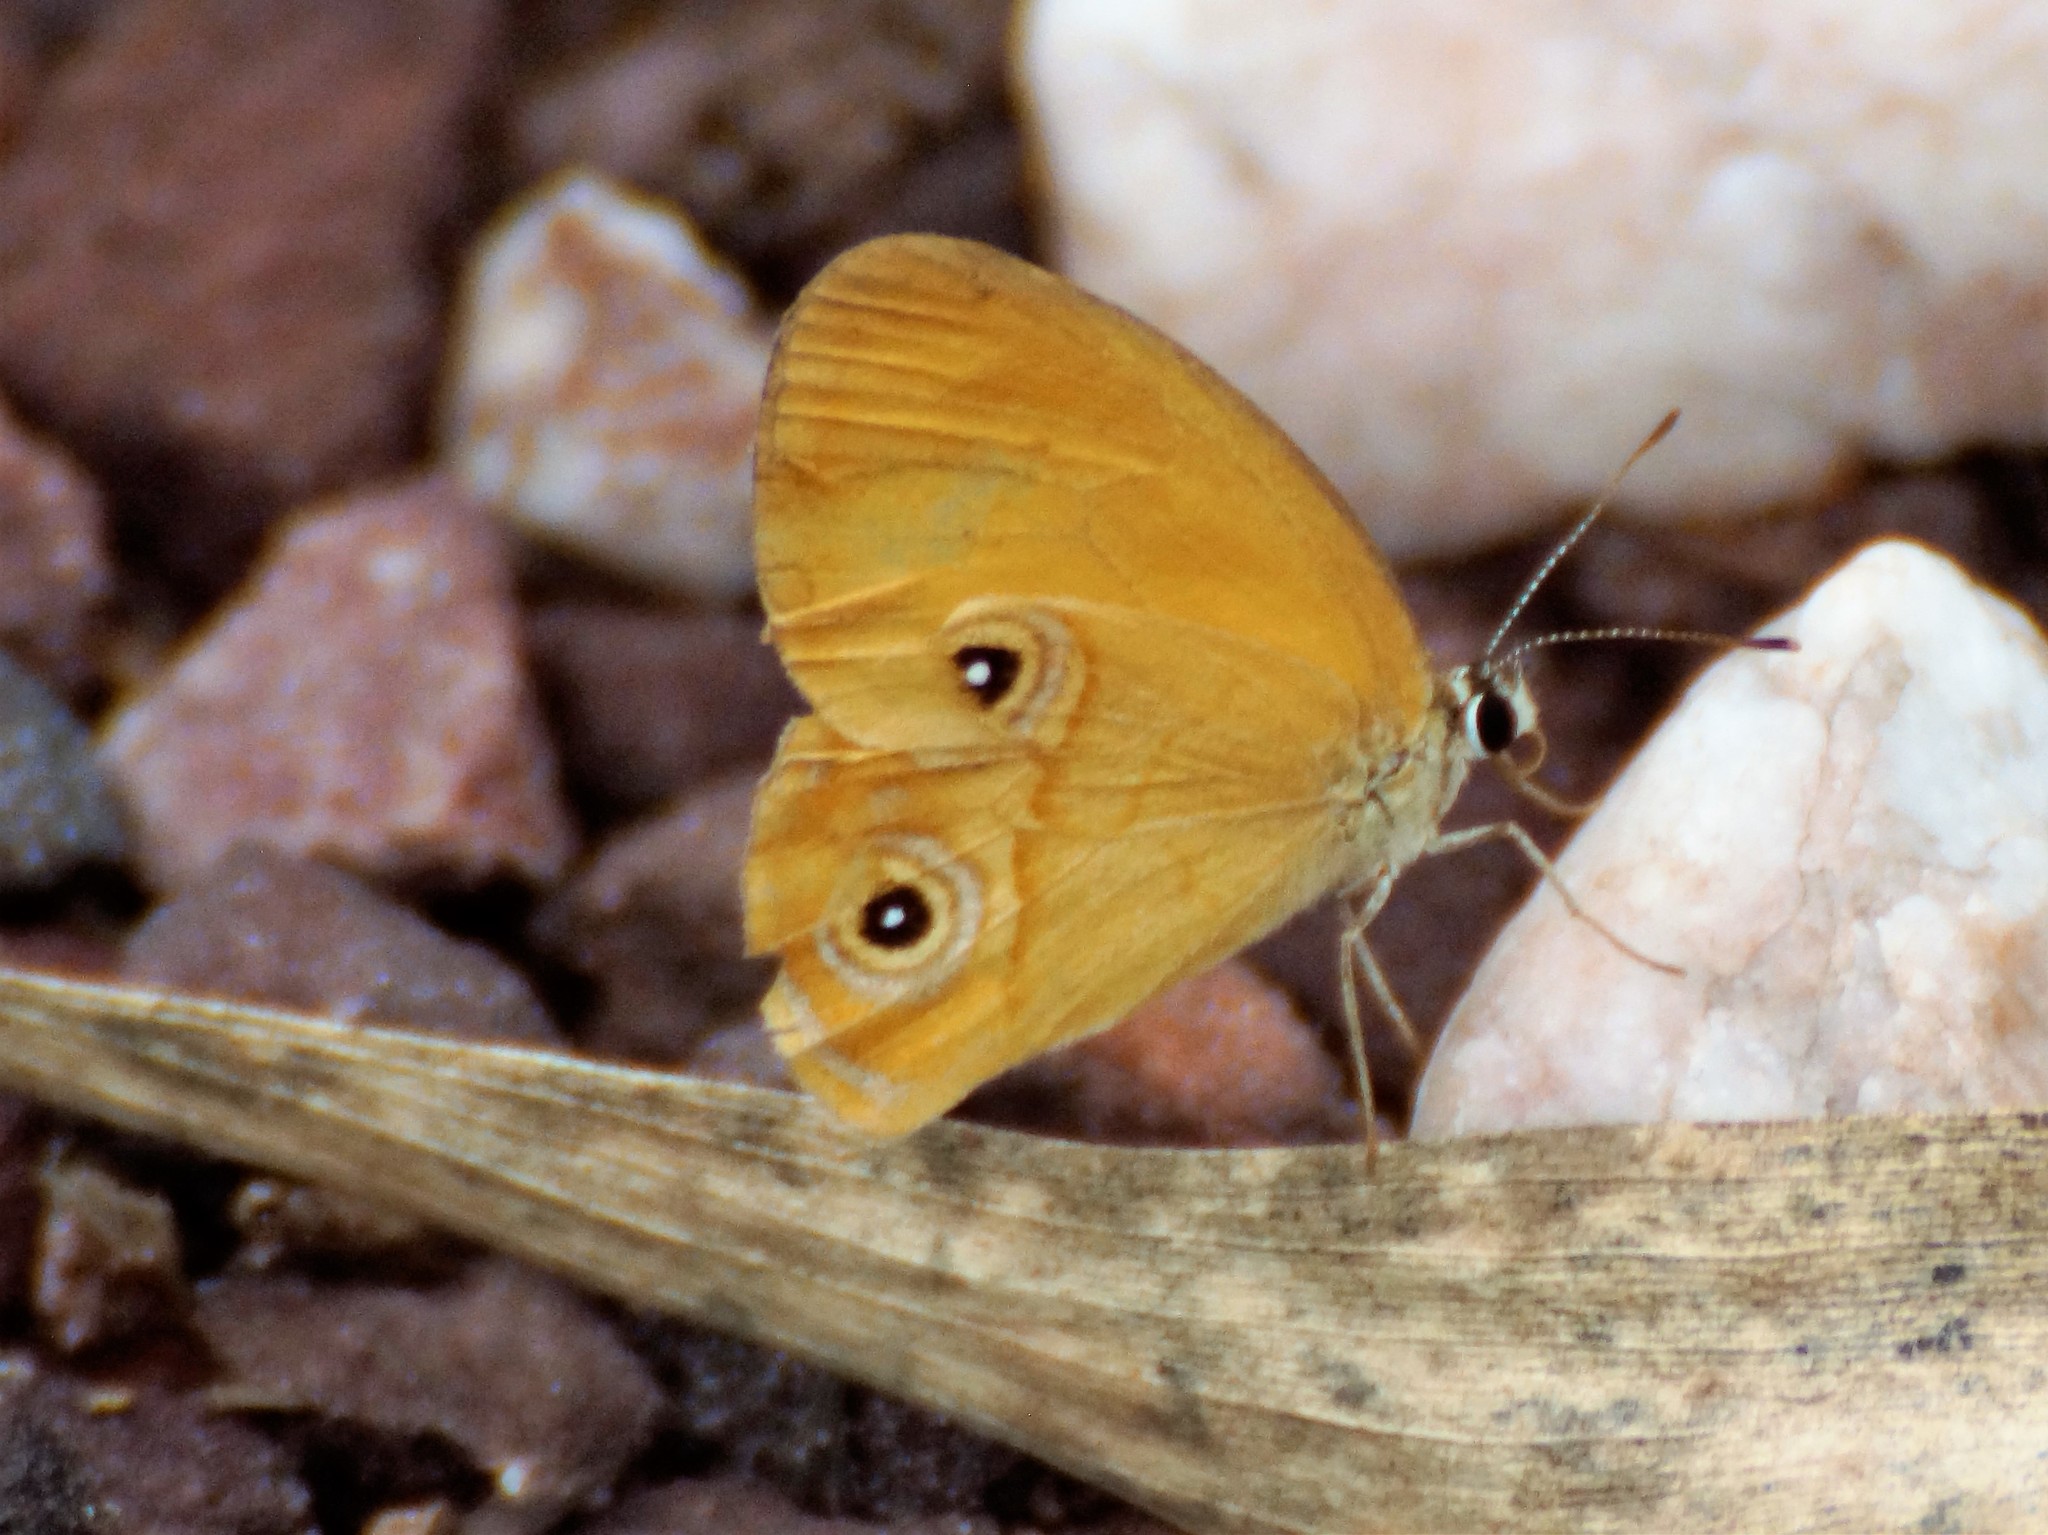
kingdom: Animalia
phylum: Arthropoda
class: Insecta
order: Lepidoptera
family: Nymphalidae
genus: Hypocysta
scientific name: Hypocysta adiante
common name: Orange ringlet
